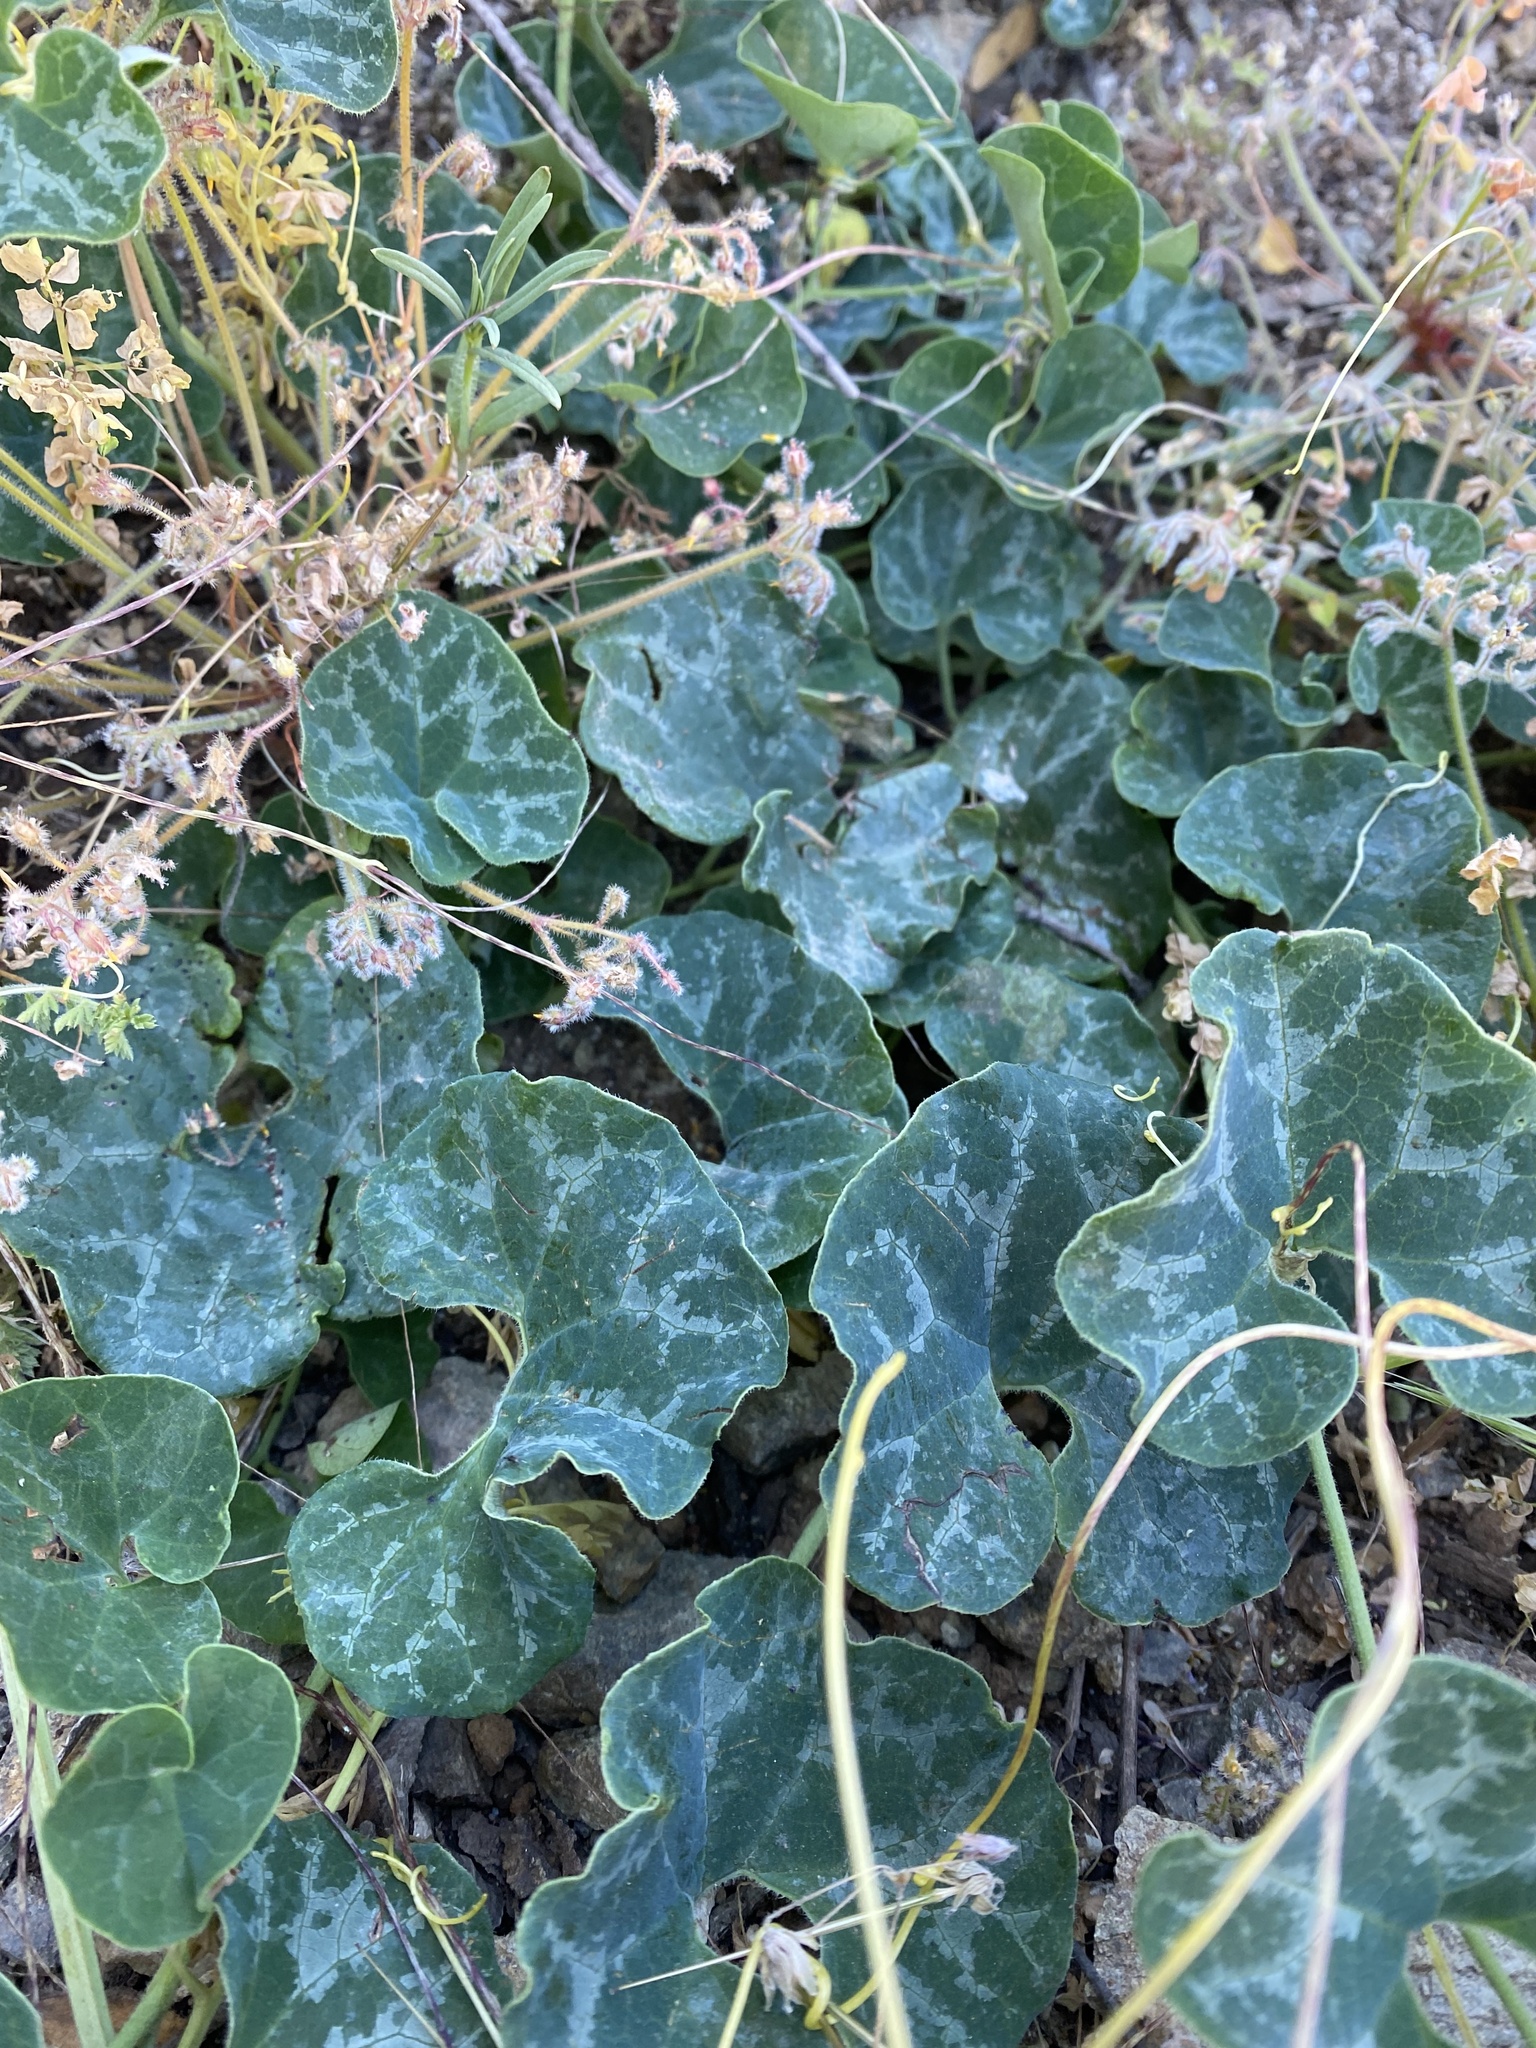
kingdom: Plantae
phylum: Tracheophyta
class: Magnoliopsida
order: Piperales
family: Aristolochiaceae
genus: Aristolochia
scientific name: Aristolochia chilensis
